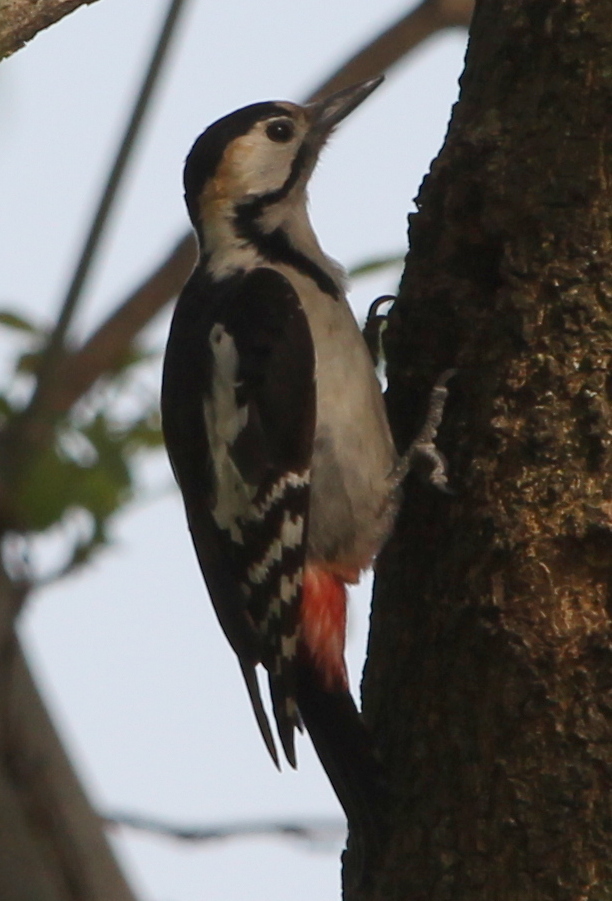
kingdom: Animalia
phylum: Chordata
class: Aves
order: Piciformes
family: Picidae
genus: Dendrocopos
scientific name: Dendrocopos syriacus
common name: Syrian woodpecker
